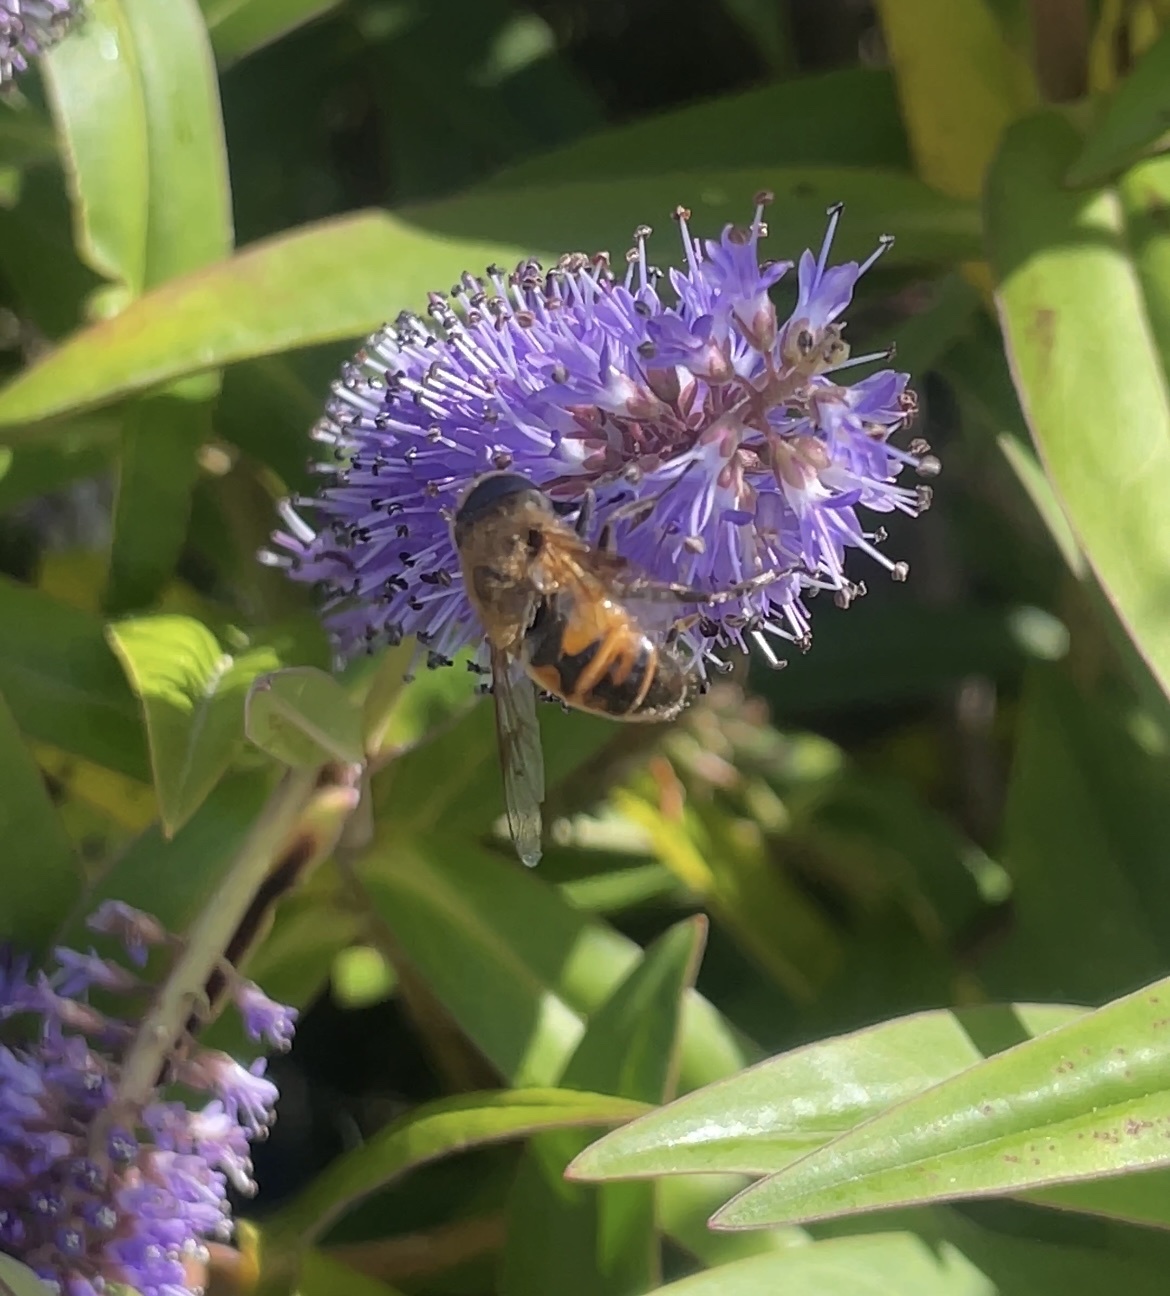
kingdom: Animalia
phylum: Arthropoda
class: Insecta
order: Diptera
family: Syrphidae
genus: Eristalis
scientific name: Eristalis tenax
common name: Drone fly
